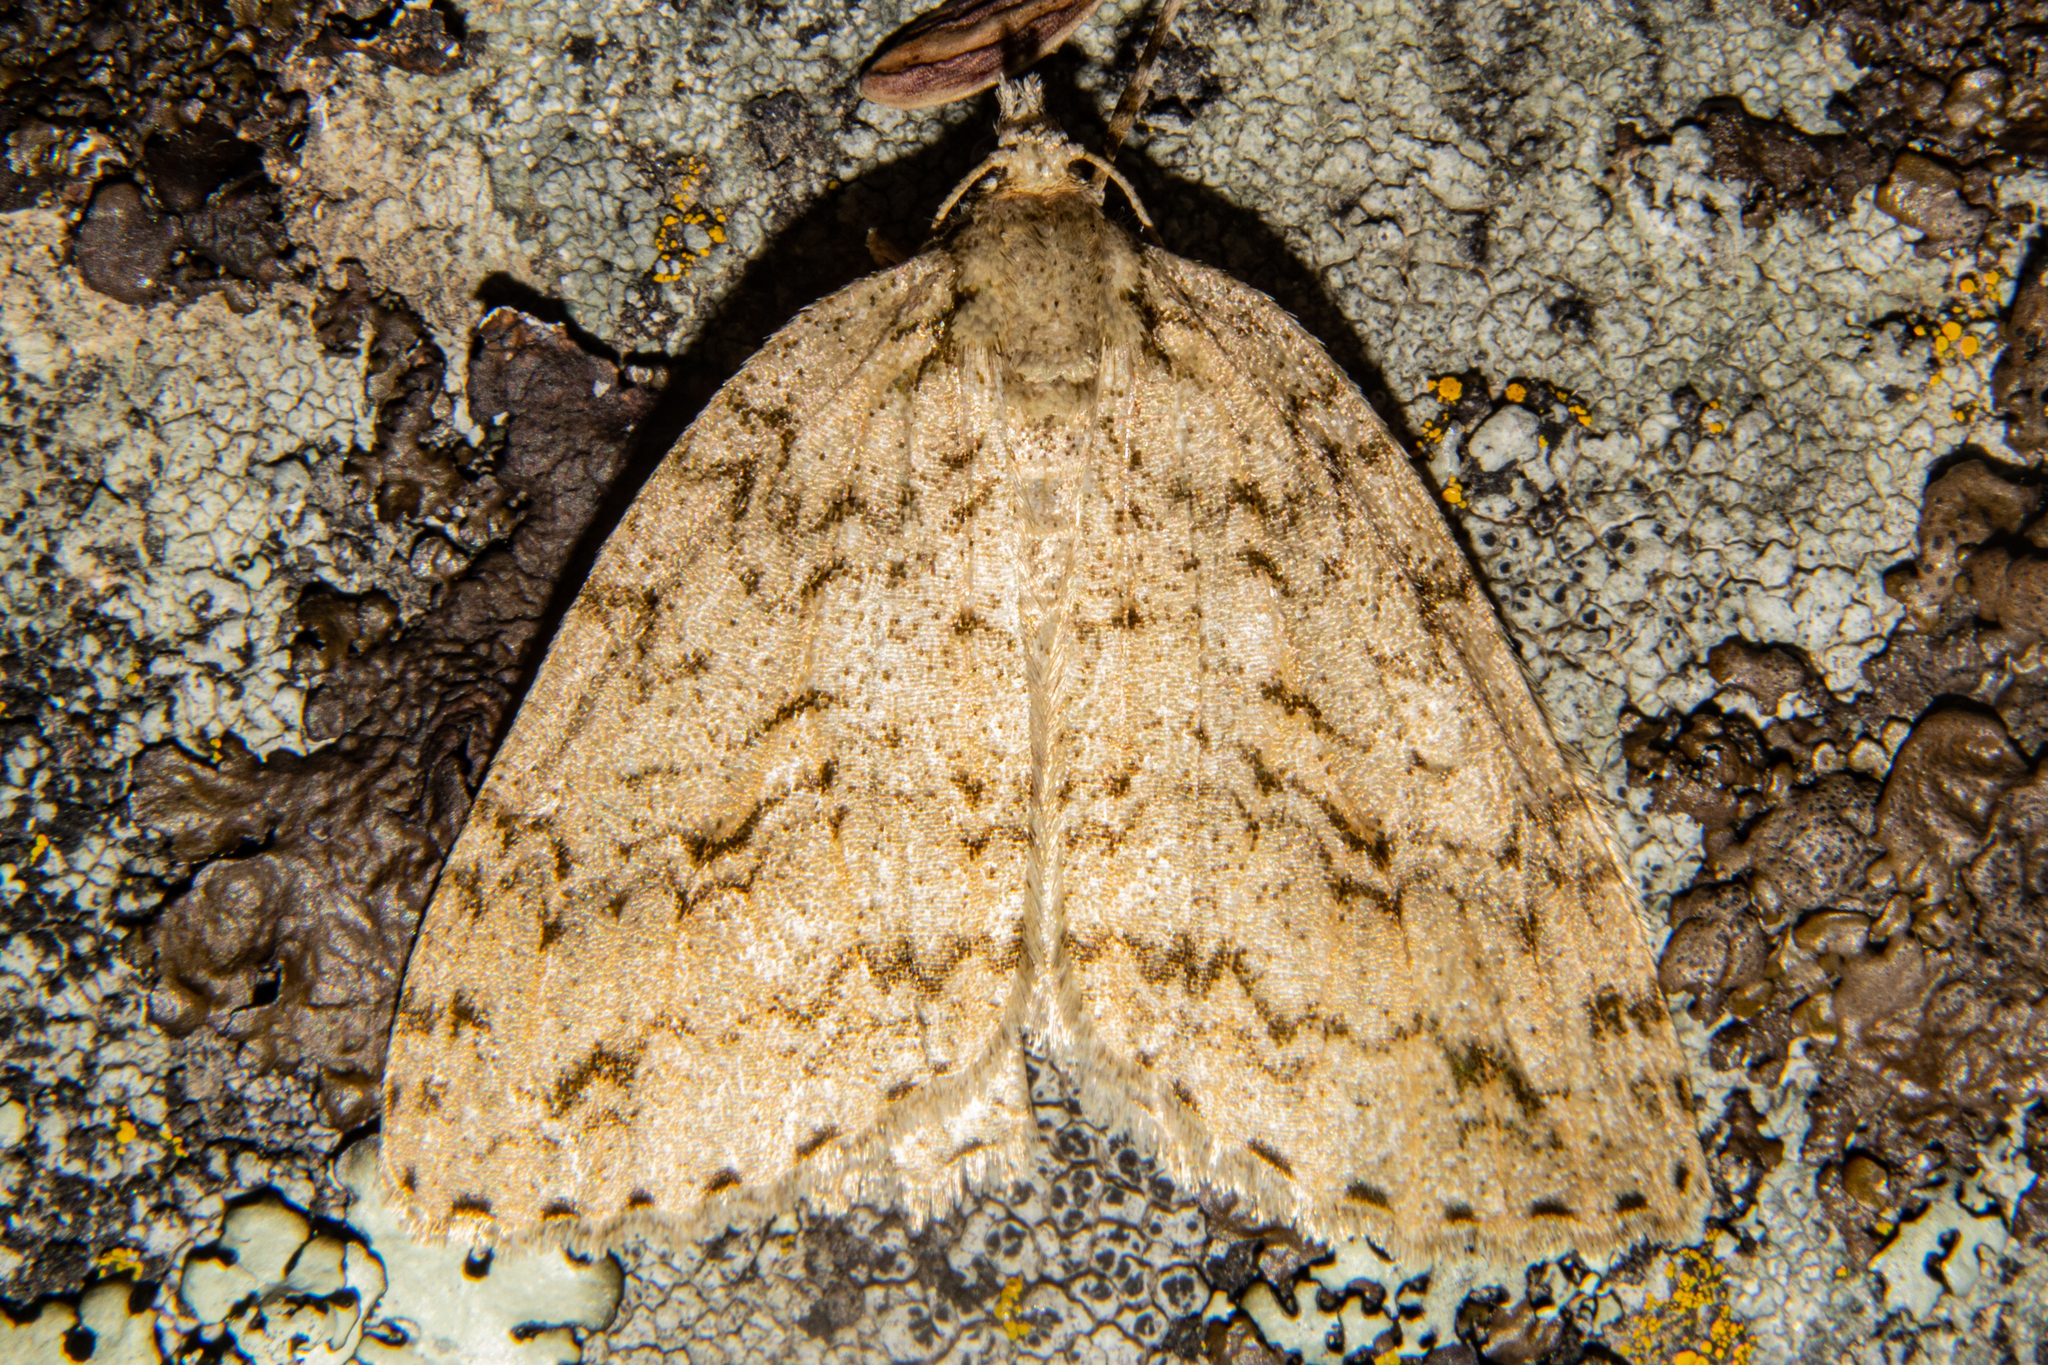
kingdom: Animalia
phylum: Arthropoda
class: Insecta
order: Lepidoptera
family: Geometridae
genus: Pseudocoremia
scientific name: Pseudocoremia rudisata
